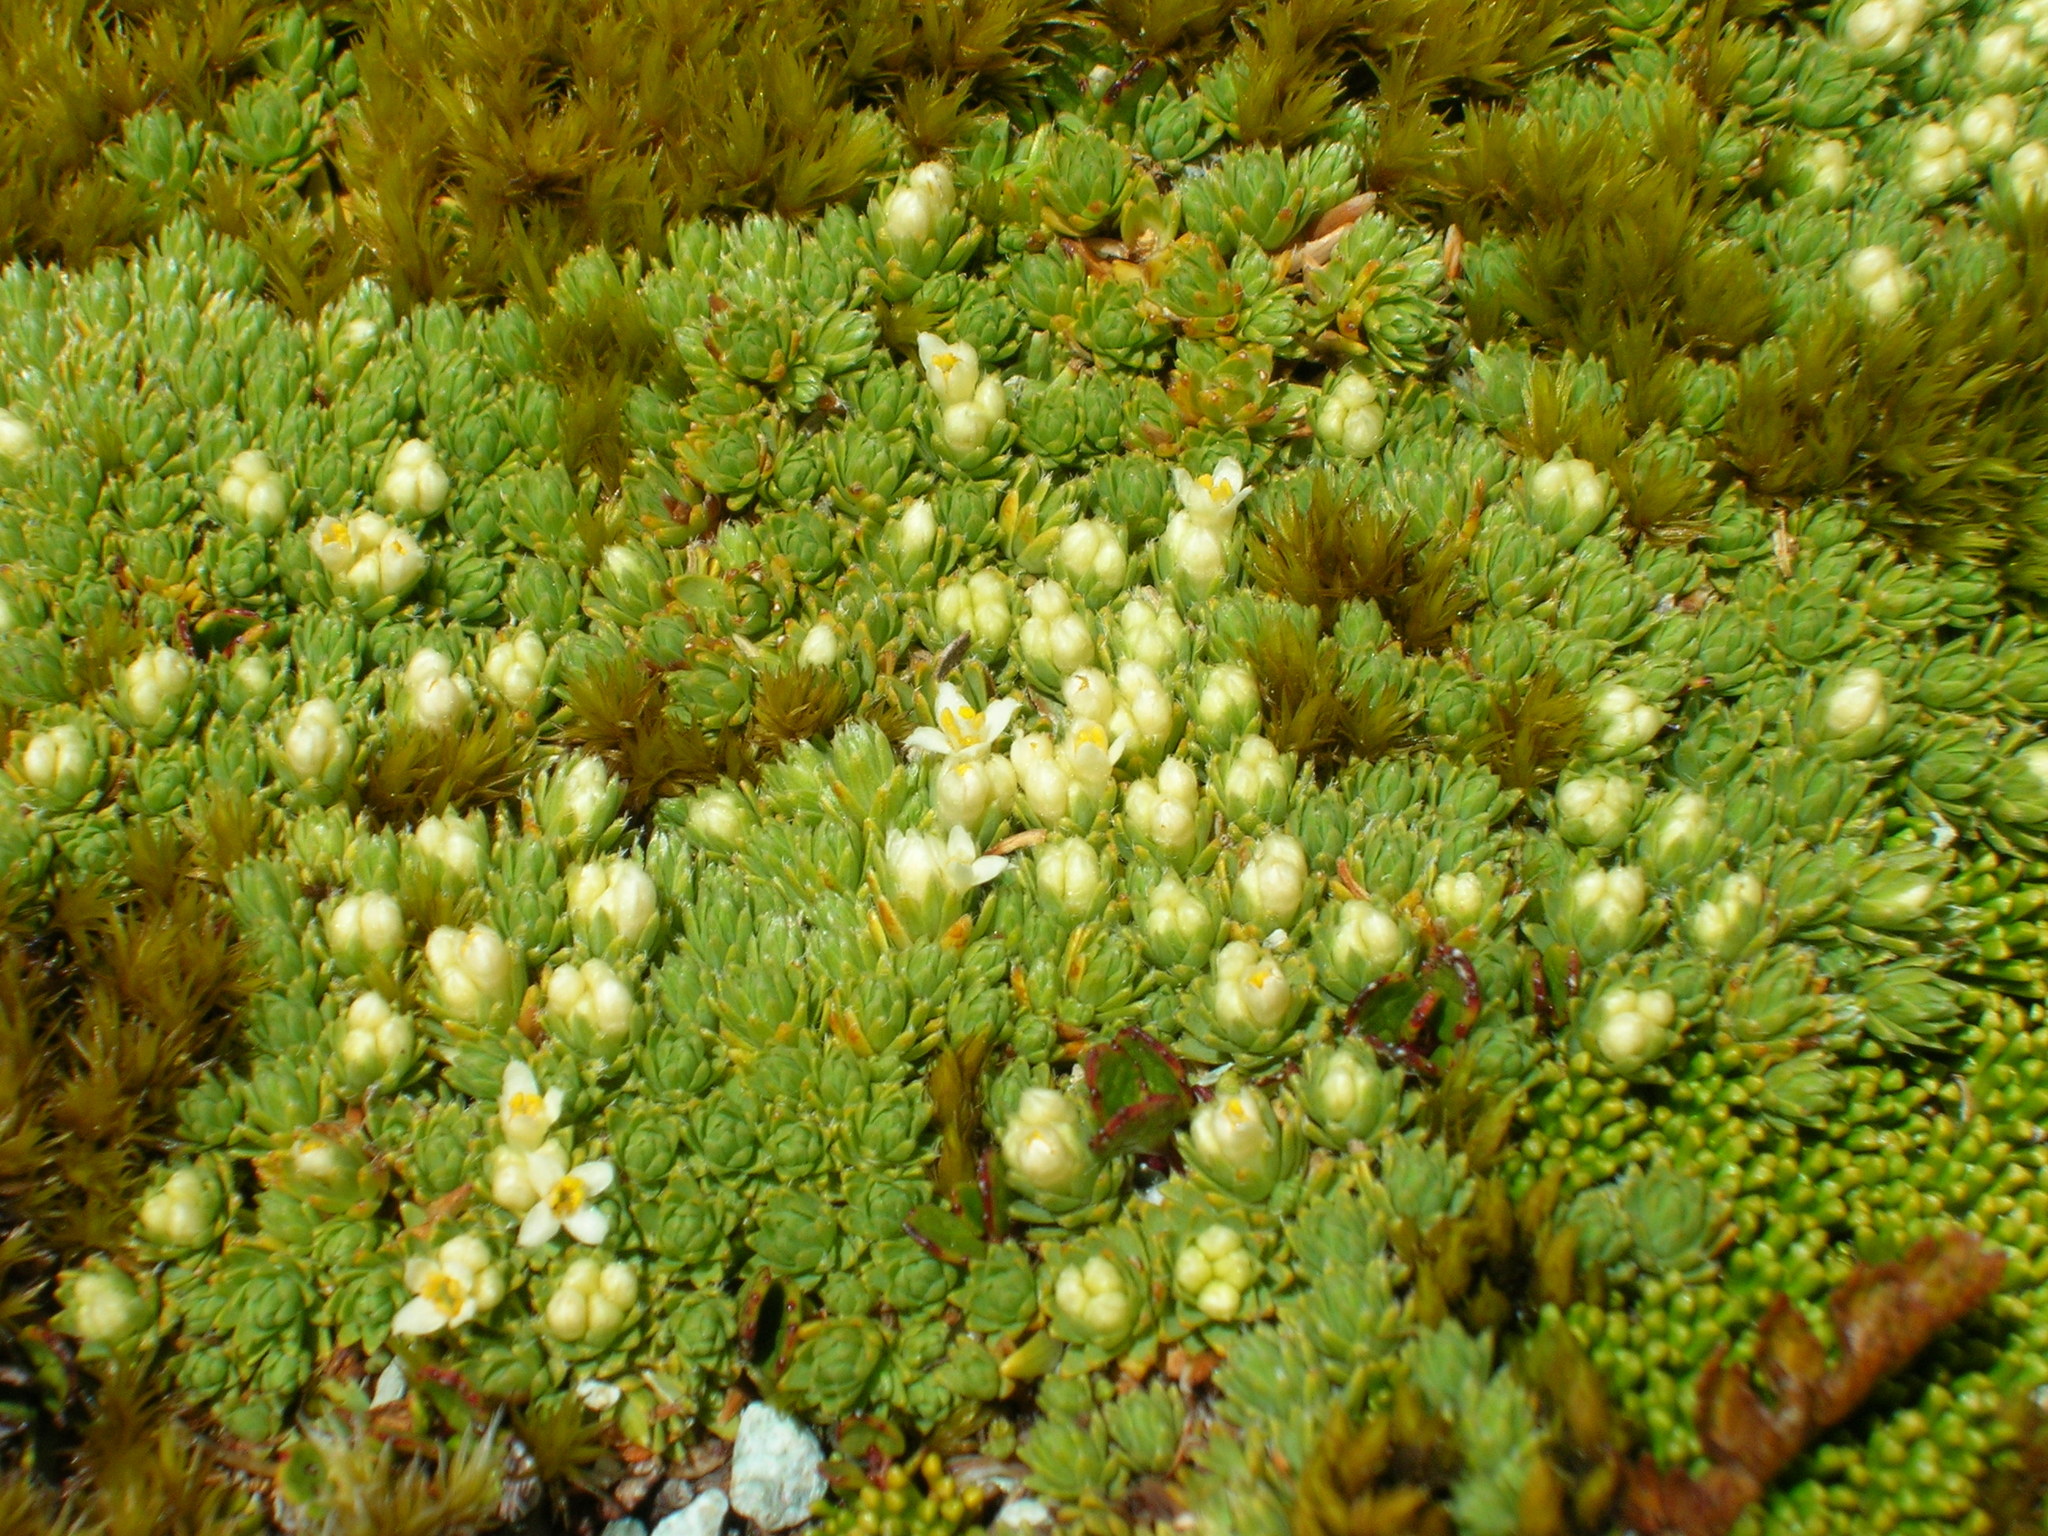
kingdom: Plantae
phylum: Tracheophyta
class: Magnoliopsida
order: Malvales
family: Thymelaeaceae
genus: Kelleria
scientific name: Kelleria croizatii
